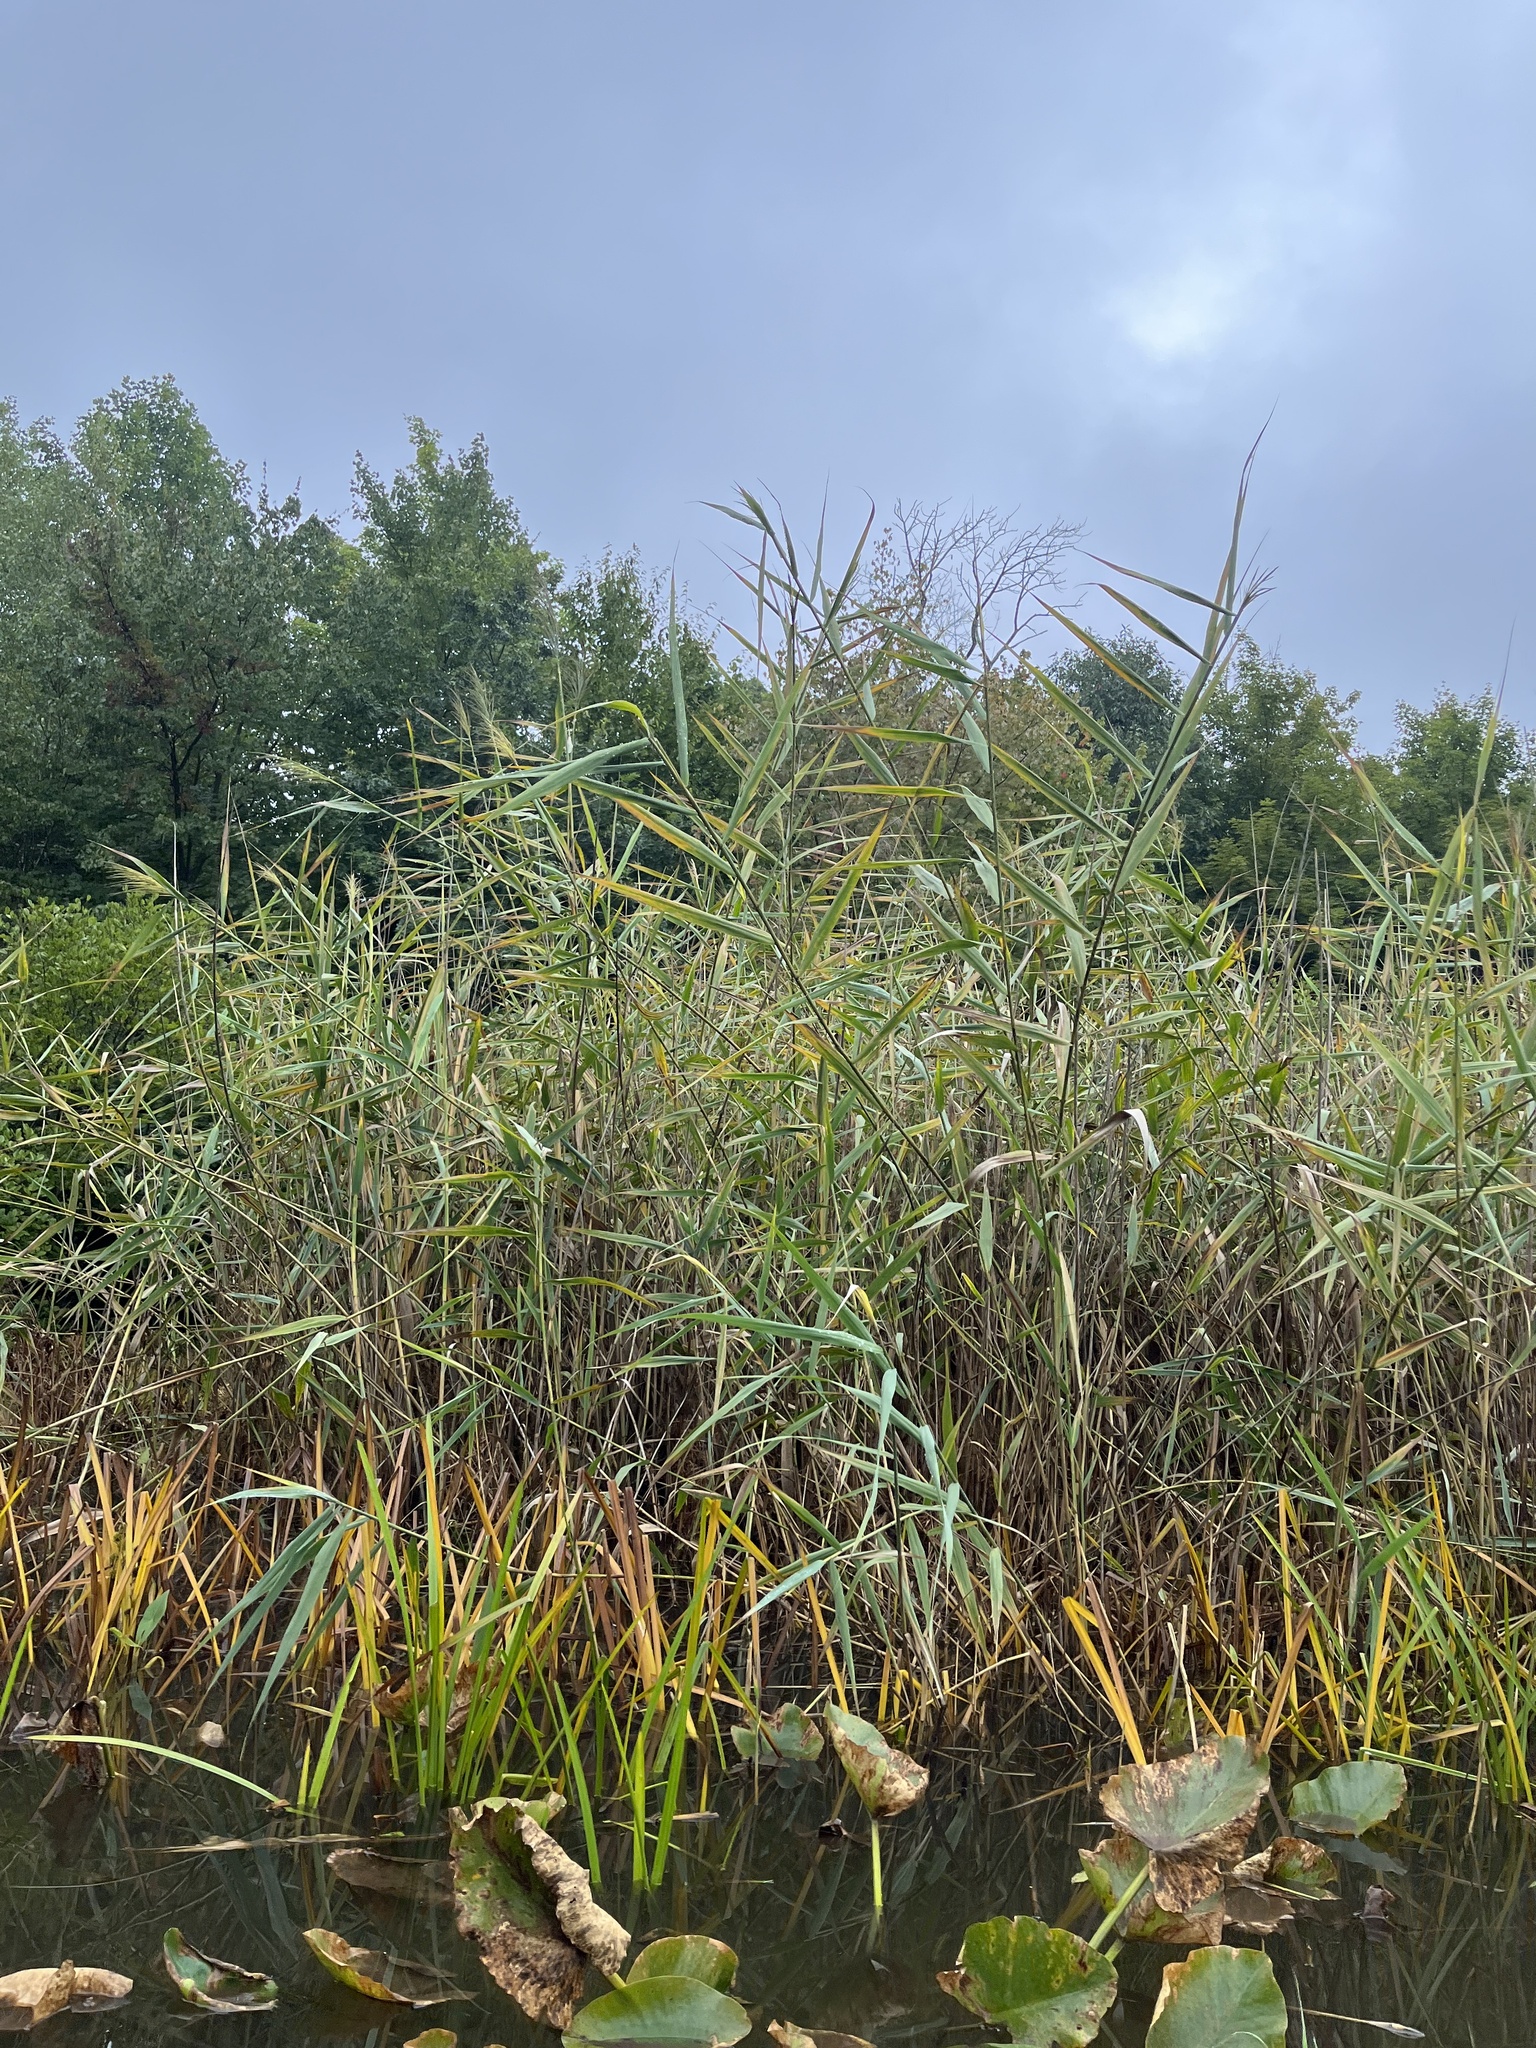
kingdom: Plantae
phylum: Tracheophyta
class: Liliopsida
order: Poales
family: Poaceae
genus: Phragmites
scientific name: Phragmites australis
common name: Common reed
